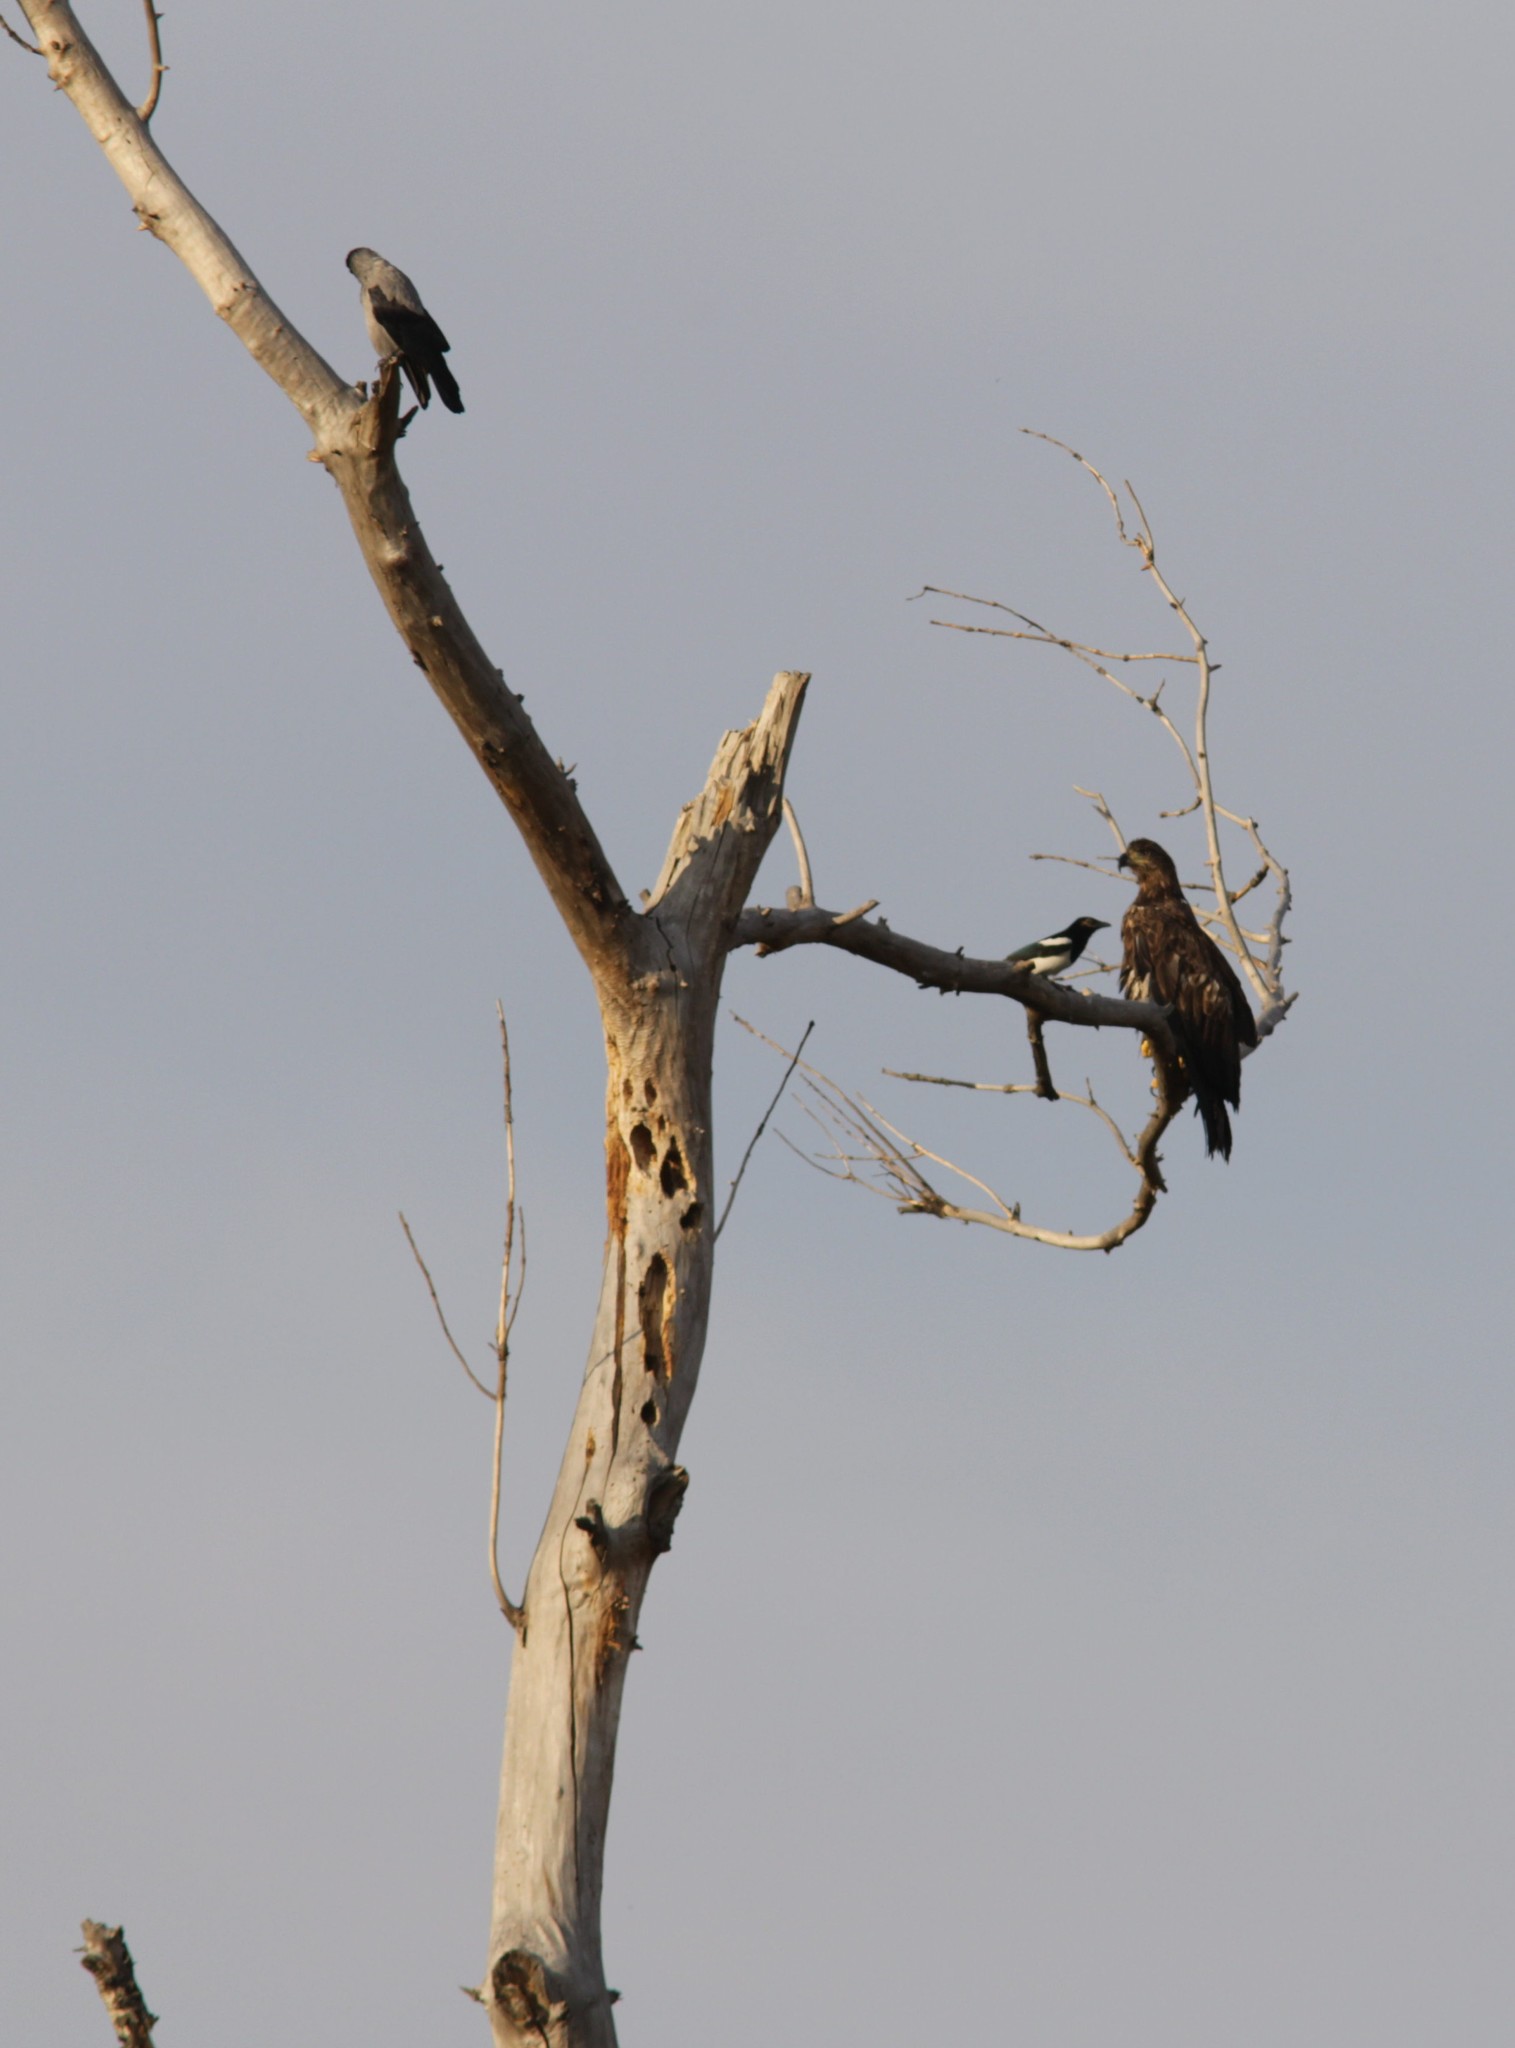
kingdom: Animalia
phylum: Chordata
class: Aves
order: Accipitriformes
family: Accipitridae
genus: Haliaeetus
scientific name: Haliaeetus albicilla
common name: White-tailed eagle
